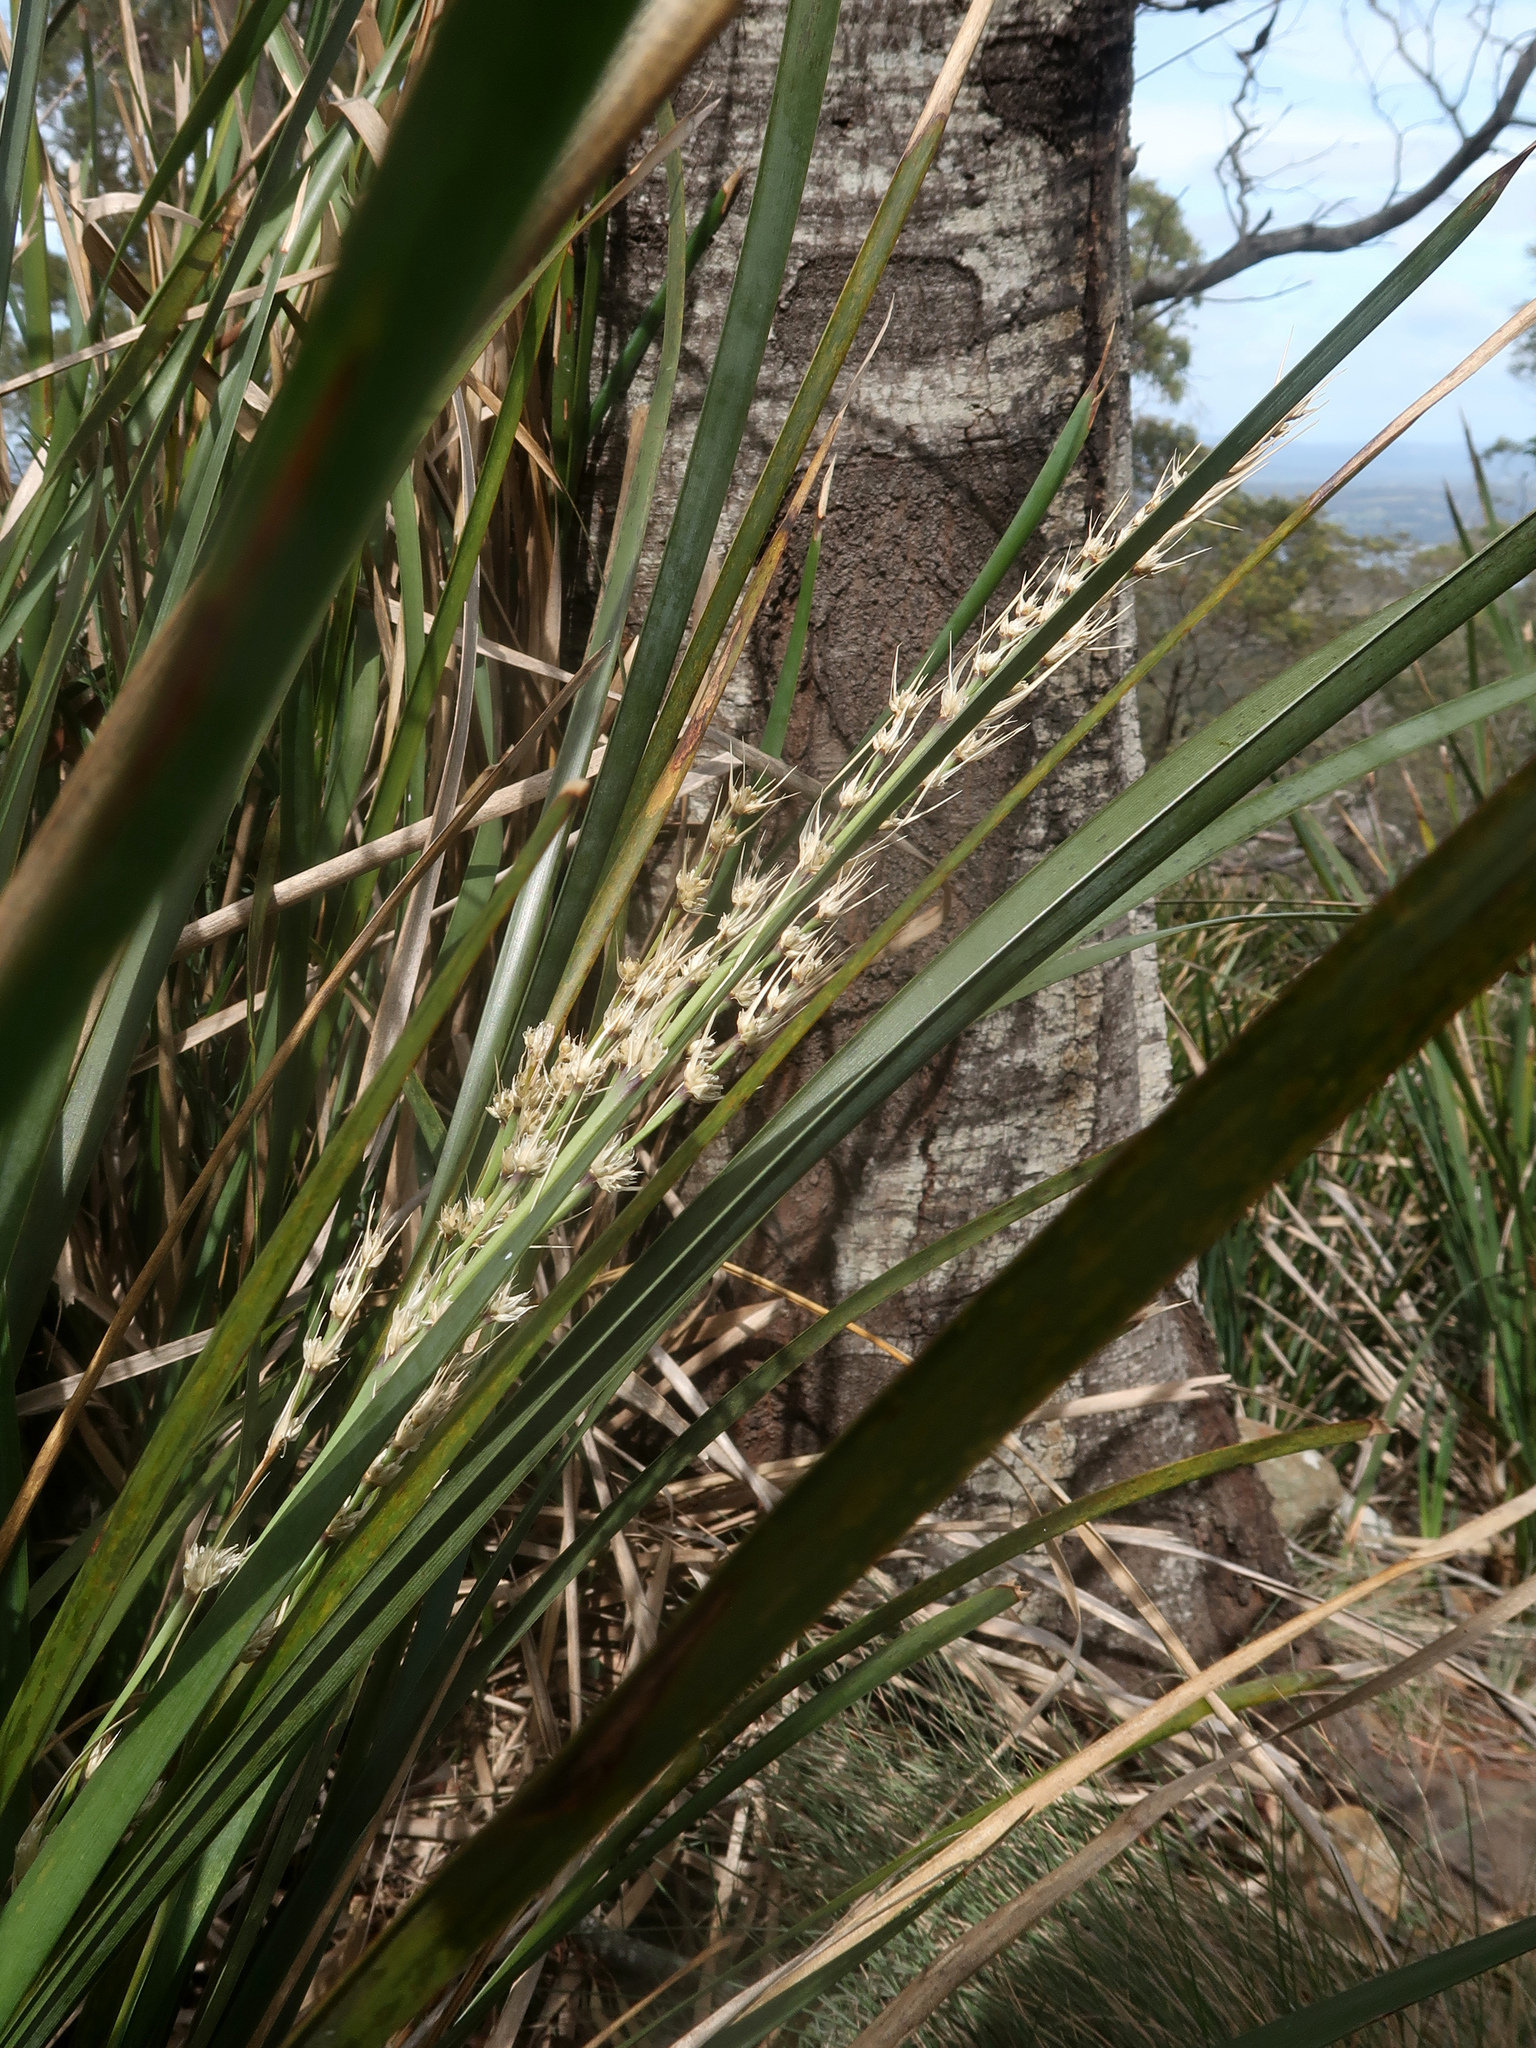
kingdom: Plantae
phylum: Tracheophyta
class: Liliopsida
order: Asparagales
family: Asparagaceae
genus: Lomandra
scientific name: Lomandra longifolia
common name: Longleaf mat-rush
